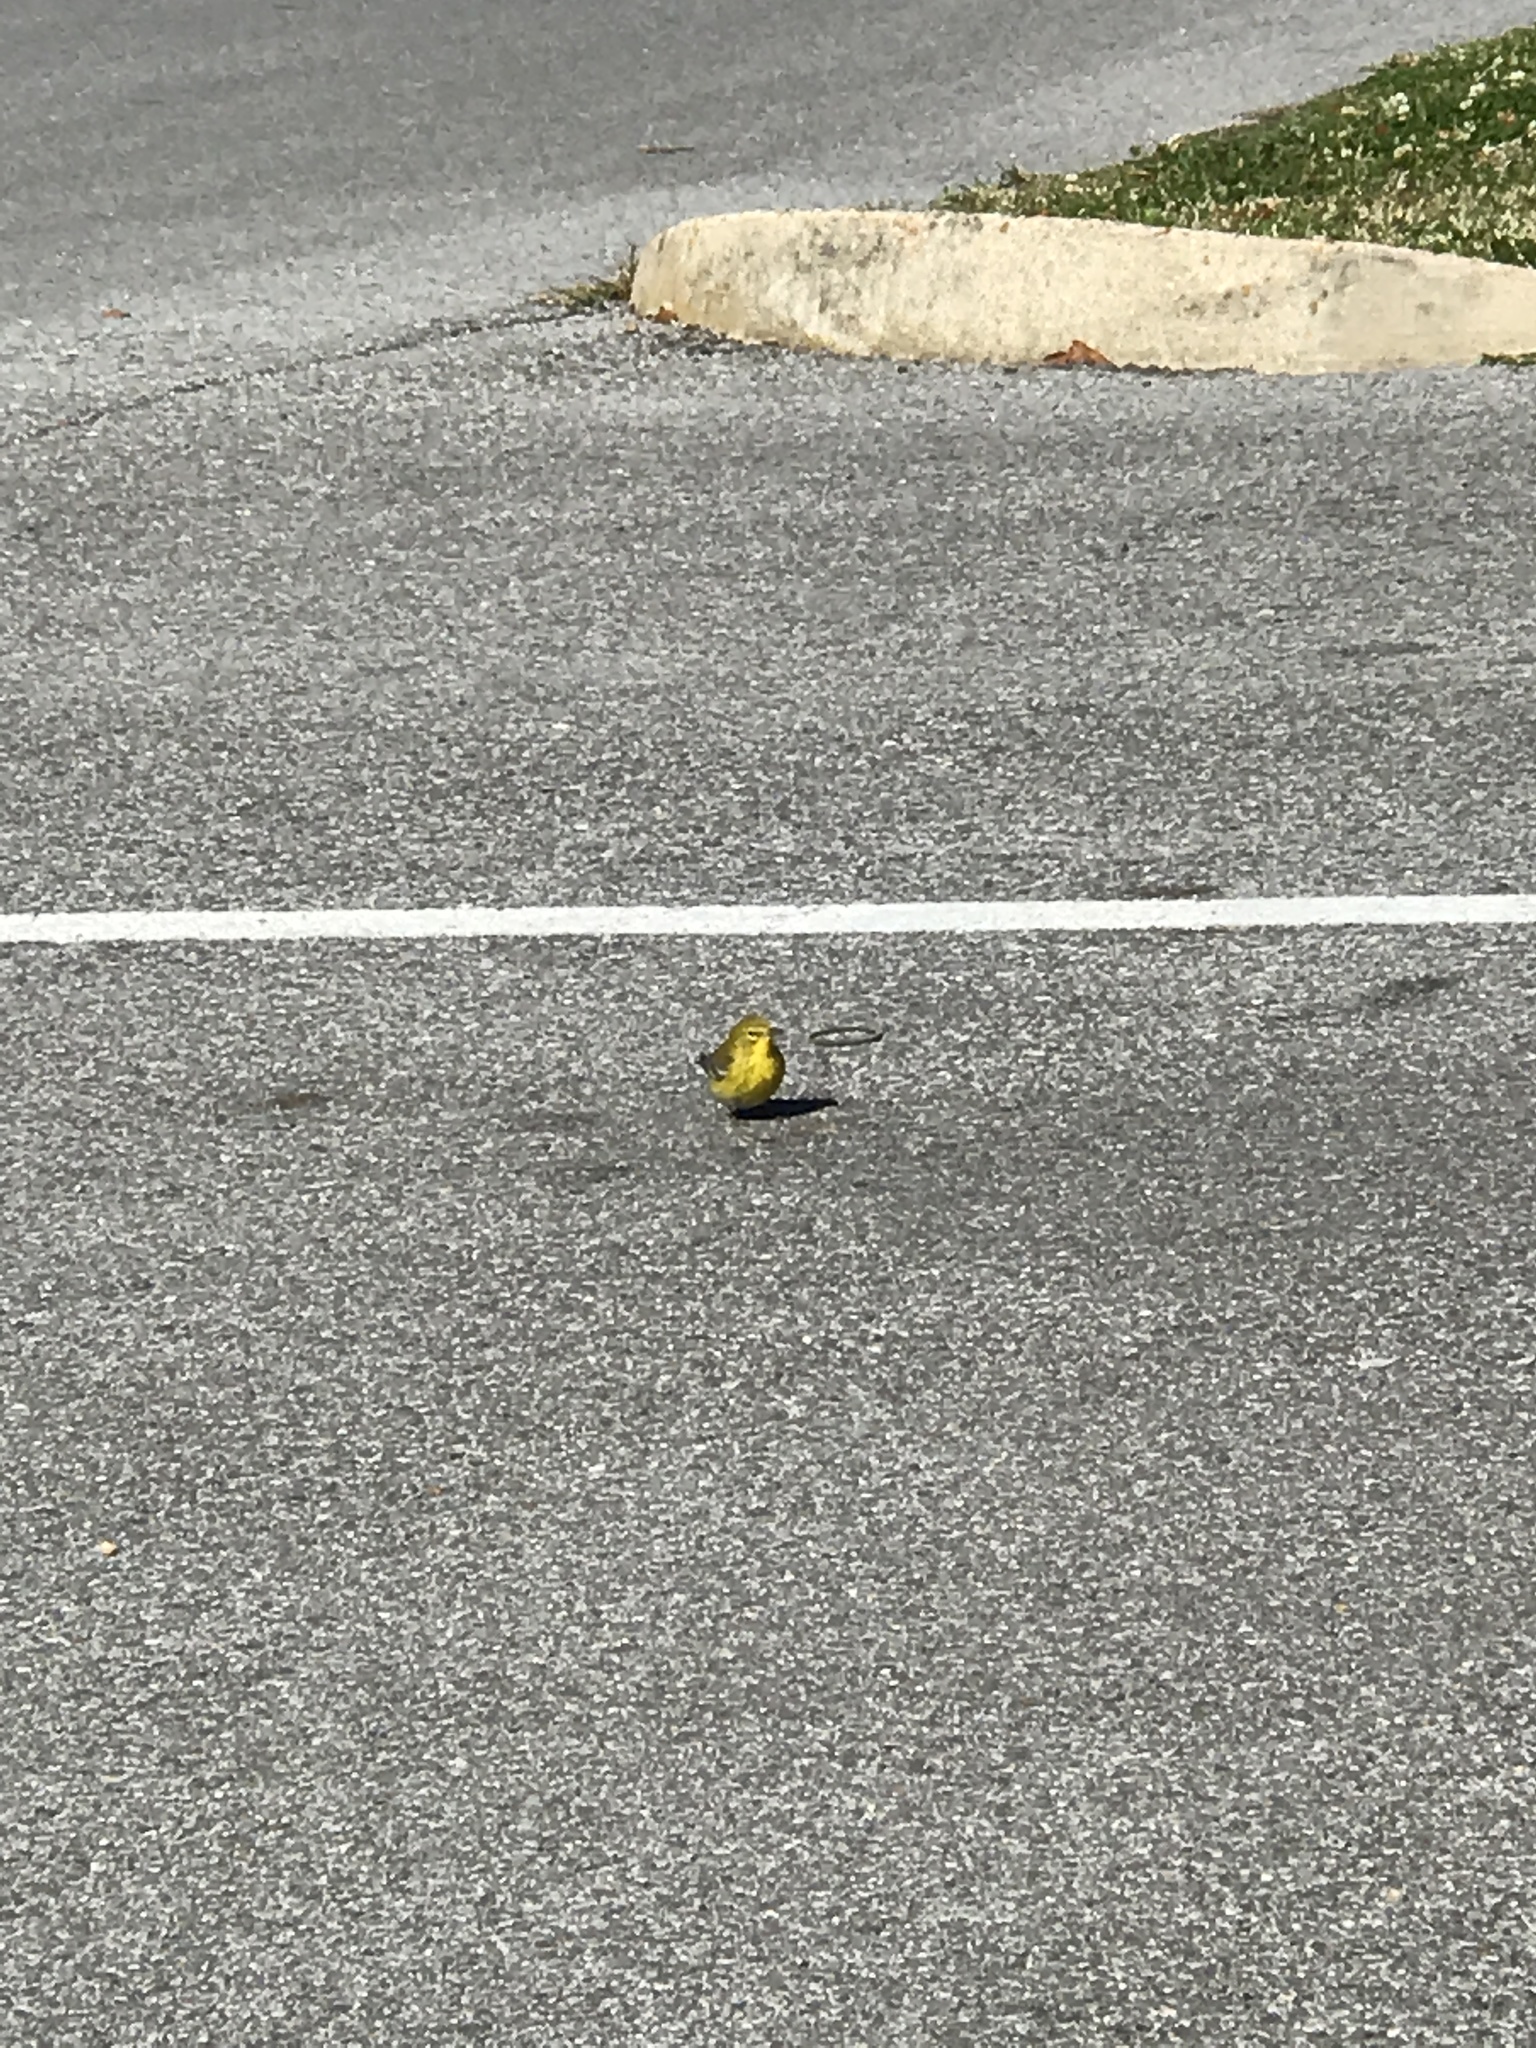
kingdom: Animalia
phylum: Chordata
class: Aves
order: Passeriformes
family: Parulidae
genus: Setophaga
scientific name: Setophaga pinus
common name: Pine warbler
